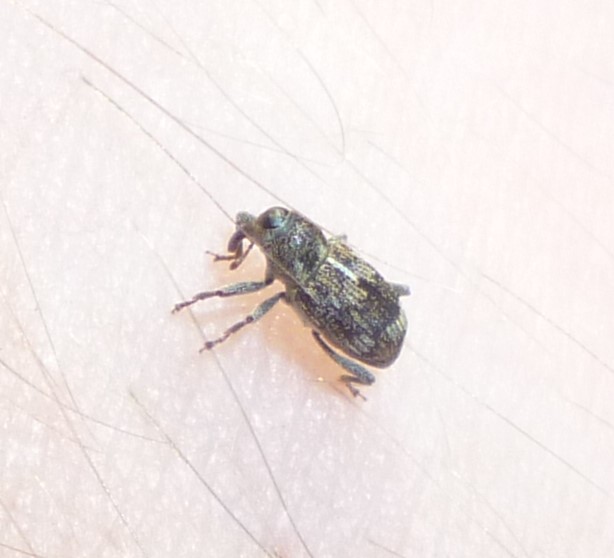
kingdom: Animalia
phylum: Arthropoda
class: Insecta
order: Coleoptera
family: Curculionidae
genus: Acoptus
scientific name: Acoptus suturalis
